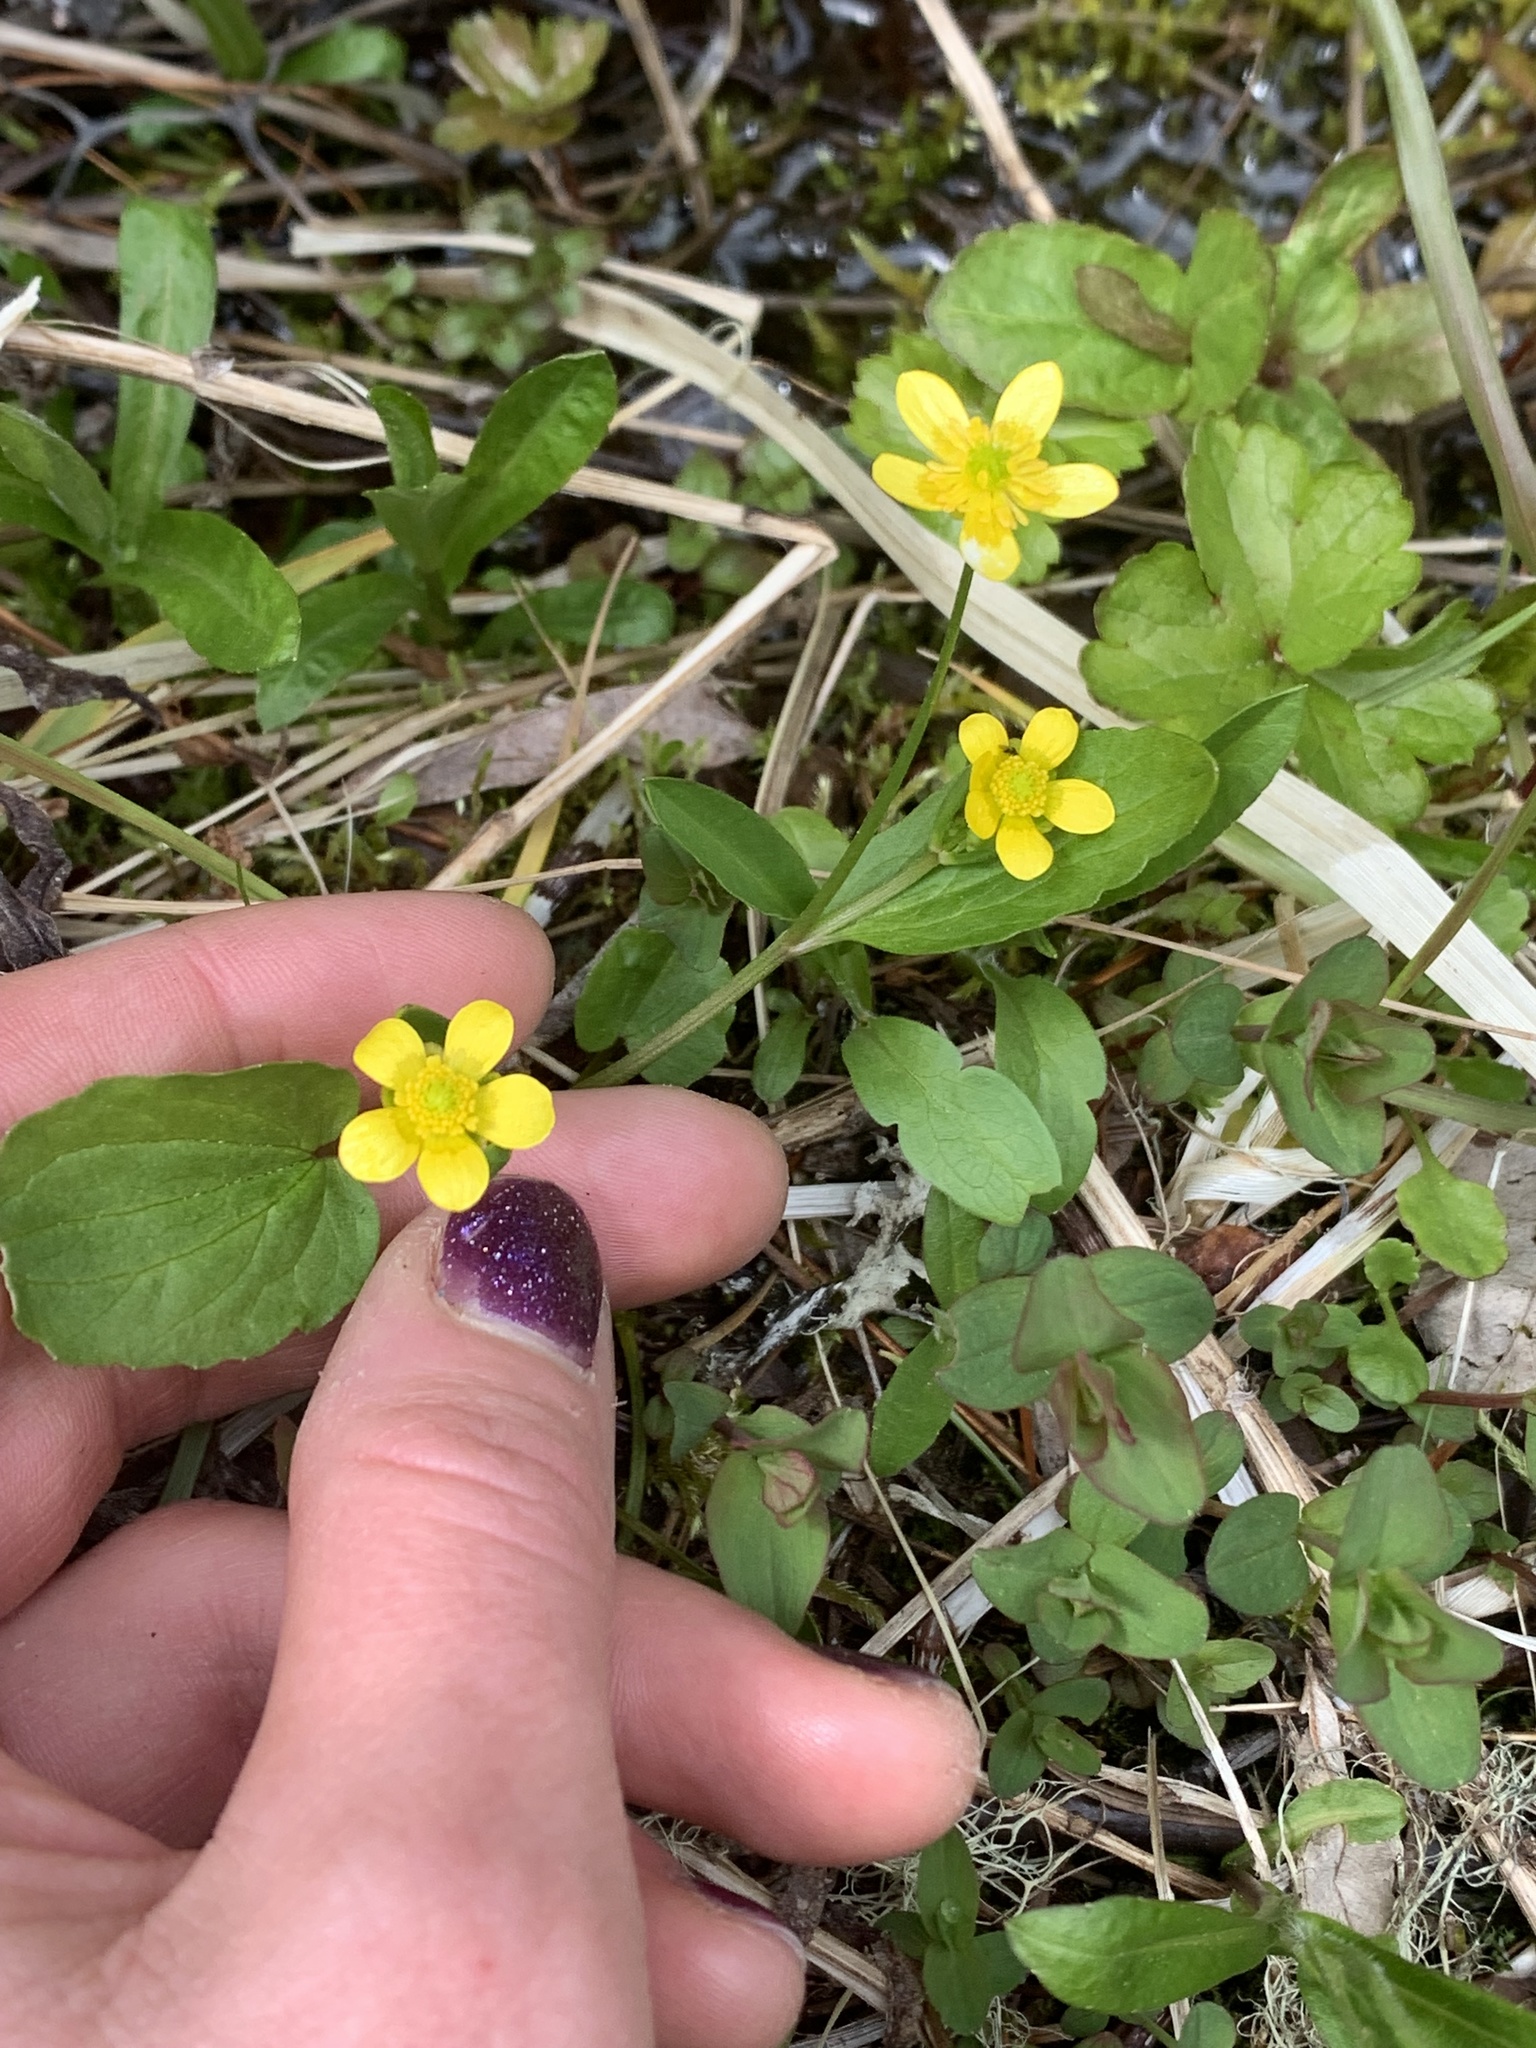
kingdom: Plantae
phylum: Tracheophyta
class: Magnoliopsida
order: Ranunculales
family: Ranunculaceae
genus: Ranunculus
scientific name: Ranunculus populago
